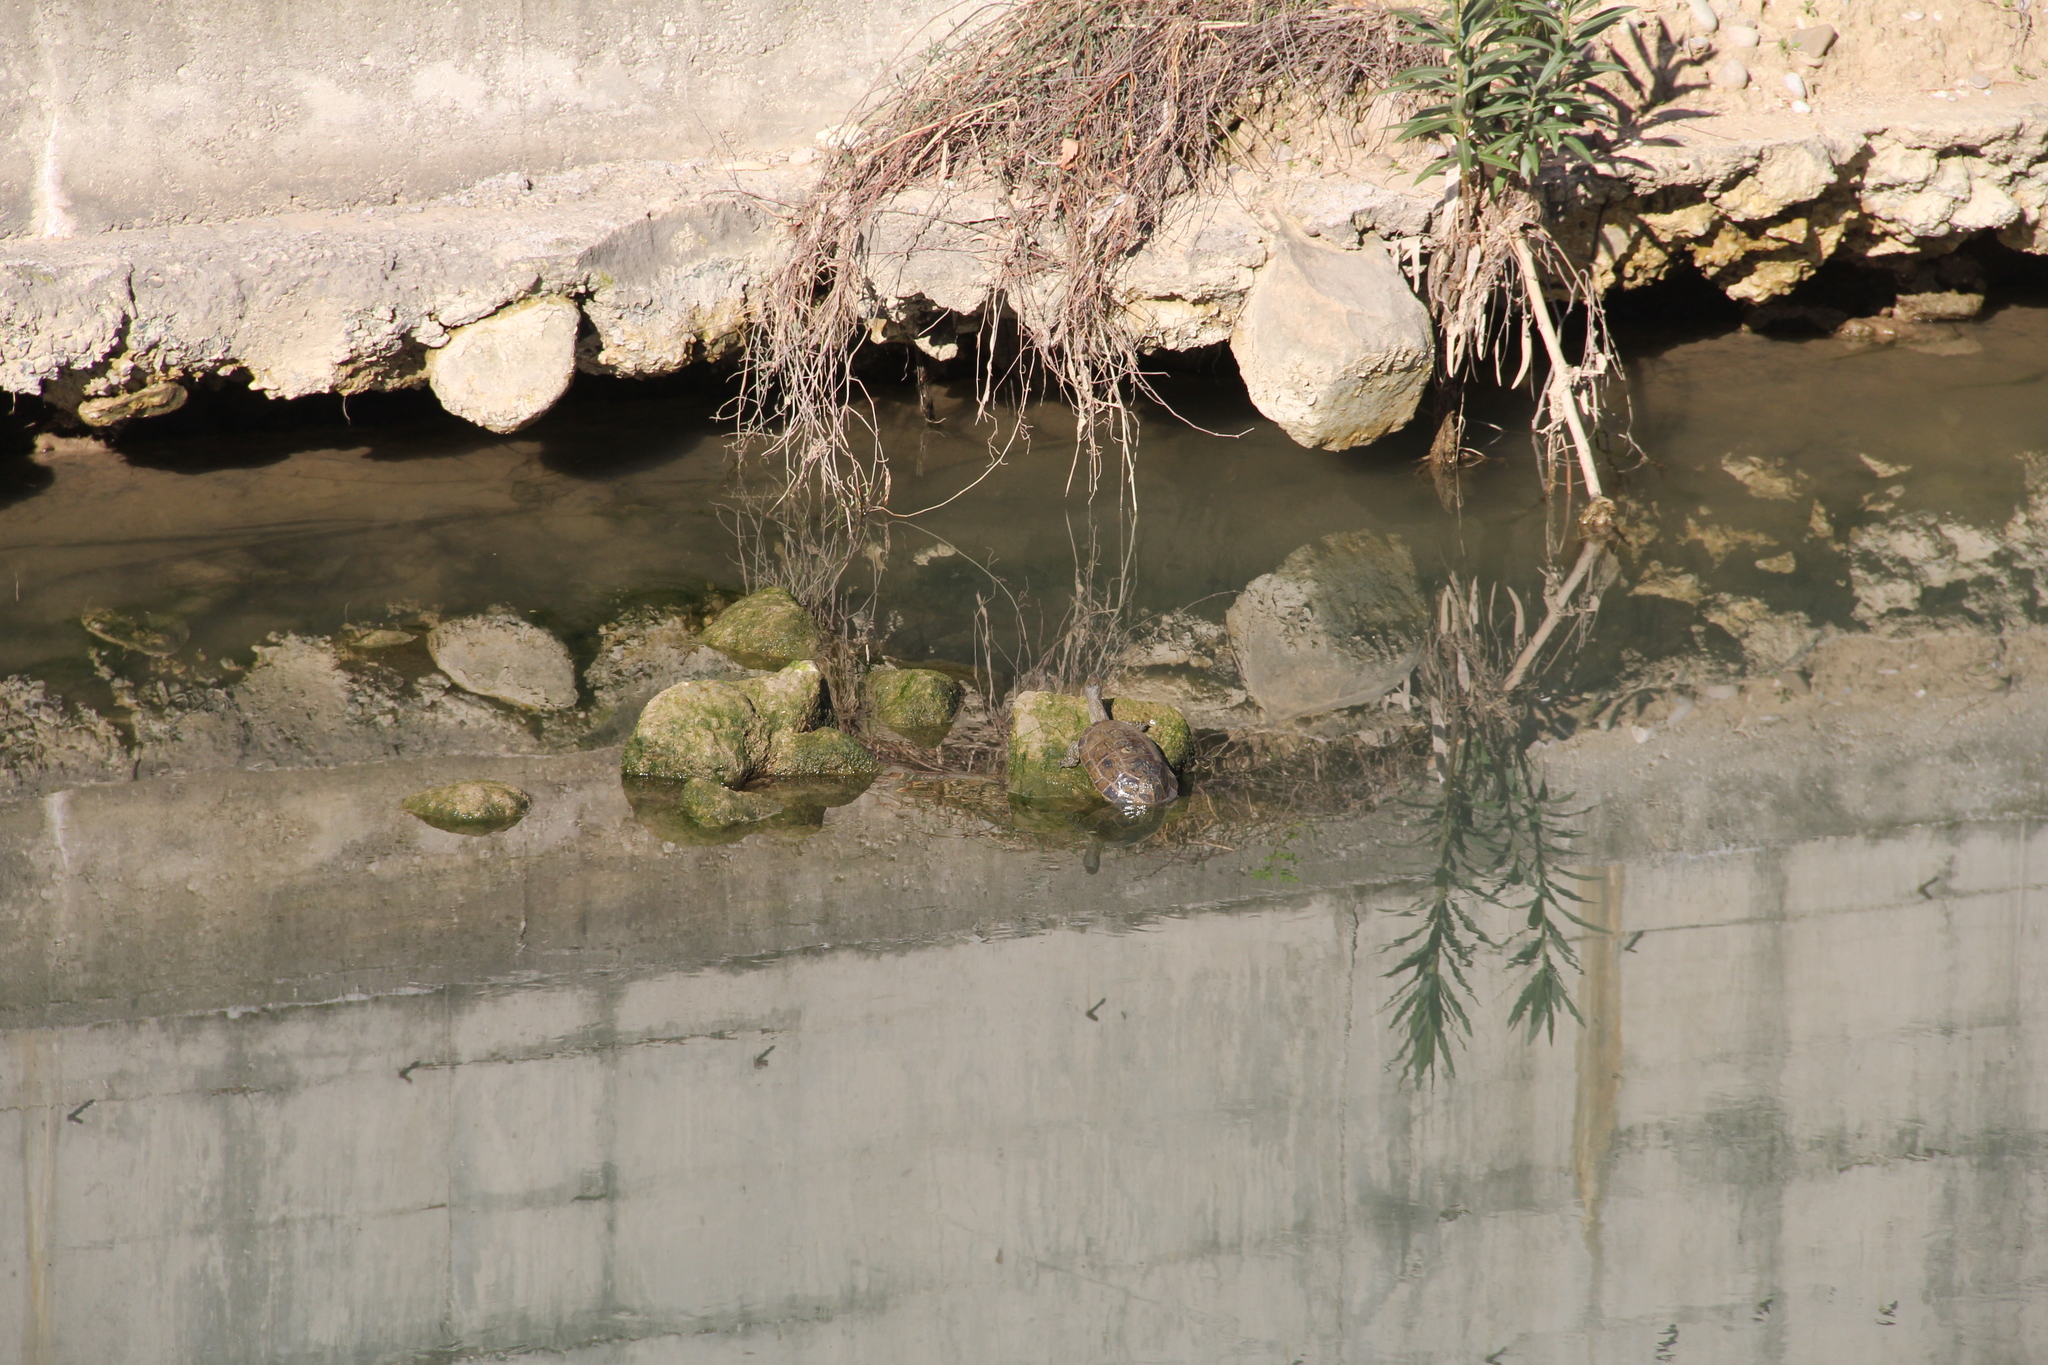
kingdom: Animalia
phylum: Chordata
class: Testudines
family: Geoemydidae
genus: Mauremys
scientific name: Mauremys rivulata
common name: Western caspian turtle
